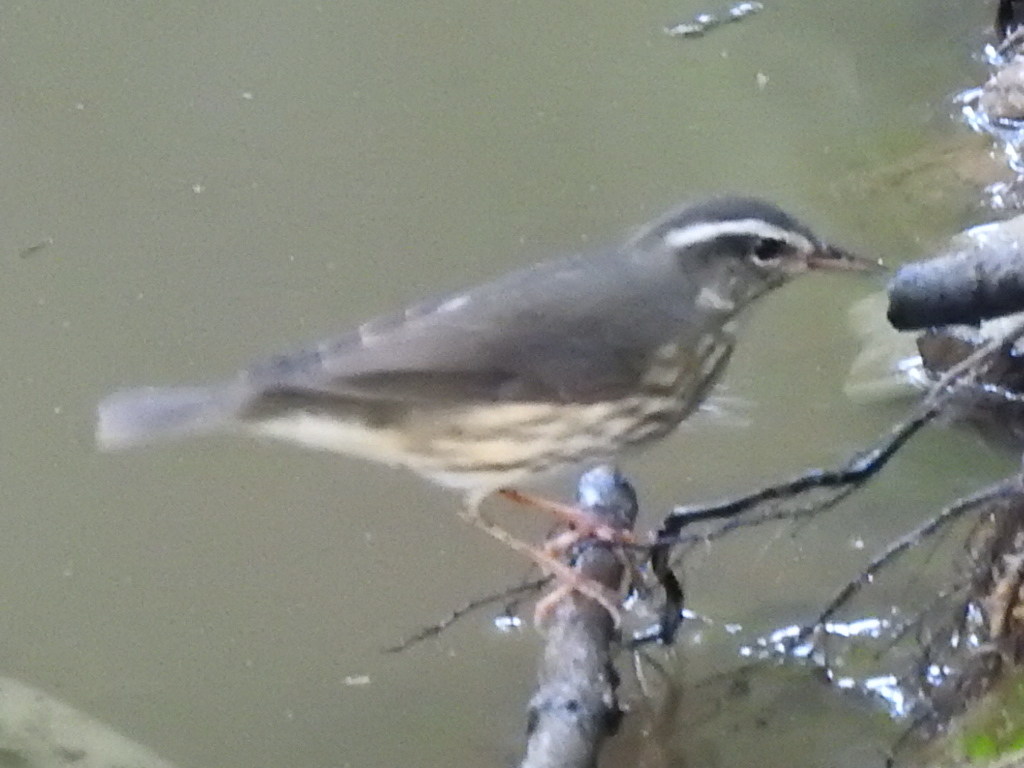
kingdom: Animalia
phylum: Chordata
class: Aves
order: Passeriformes
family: Parulidae
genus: Parkesia
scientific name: Parkesia motacilla
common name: Louisiana waterthrush
